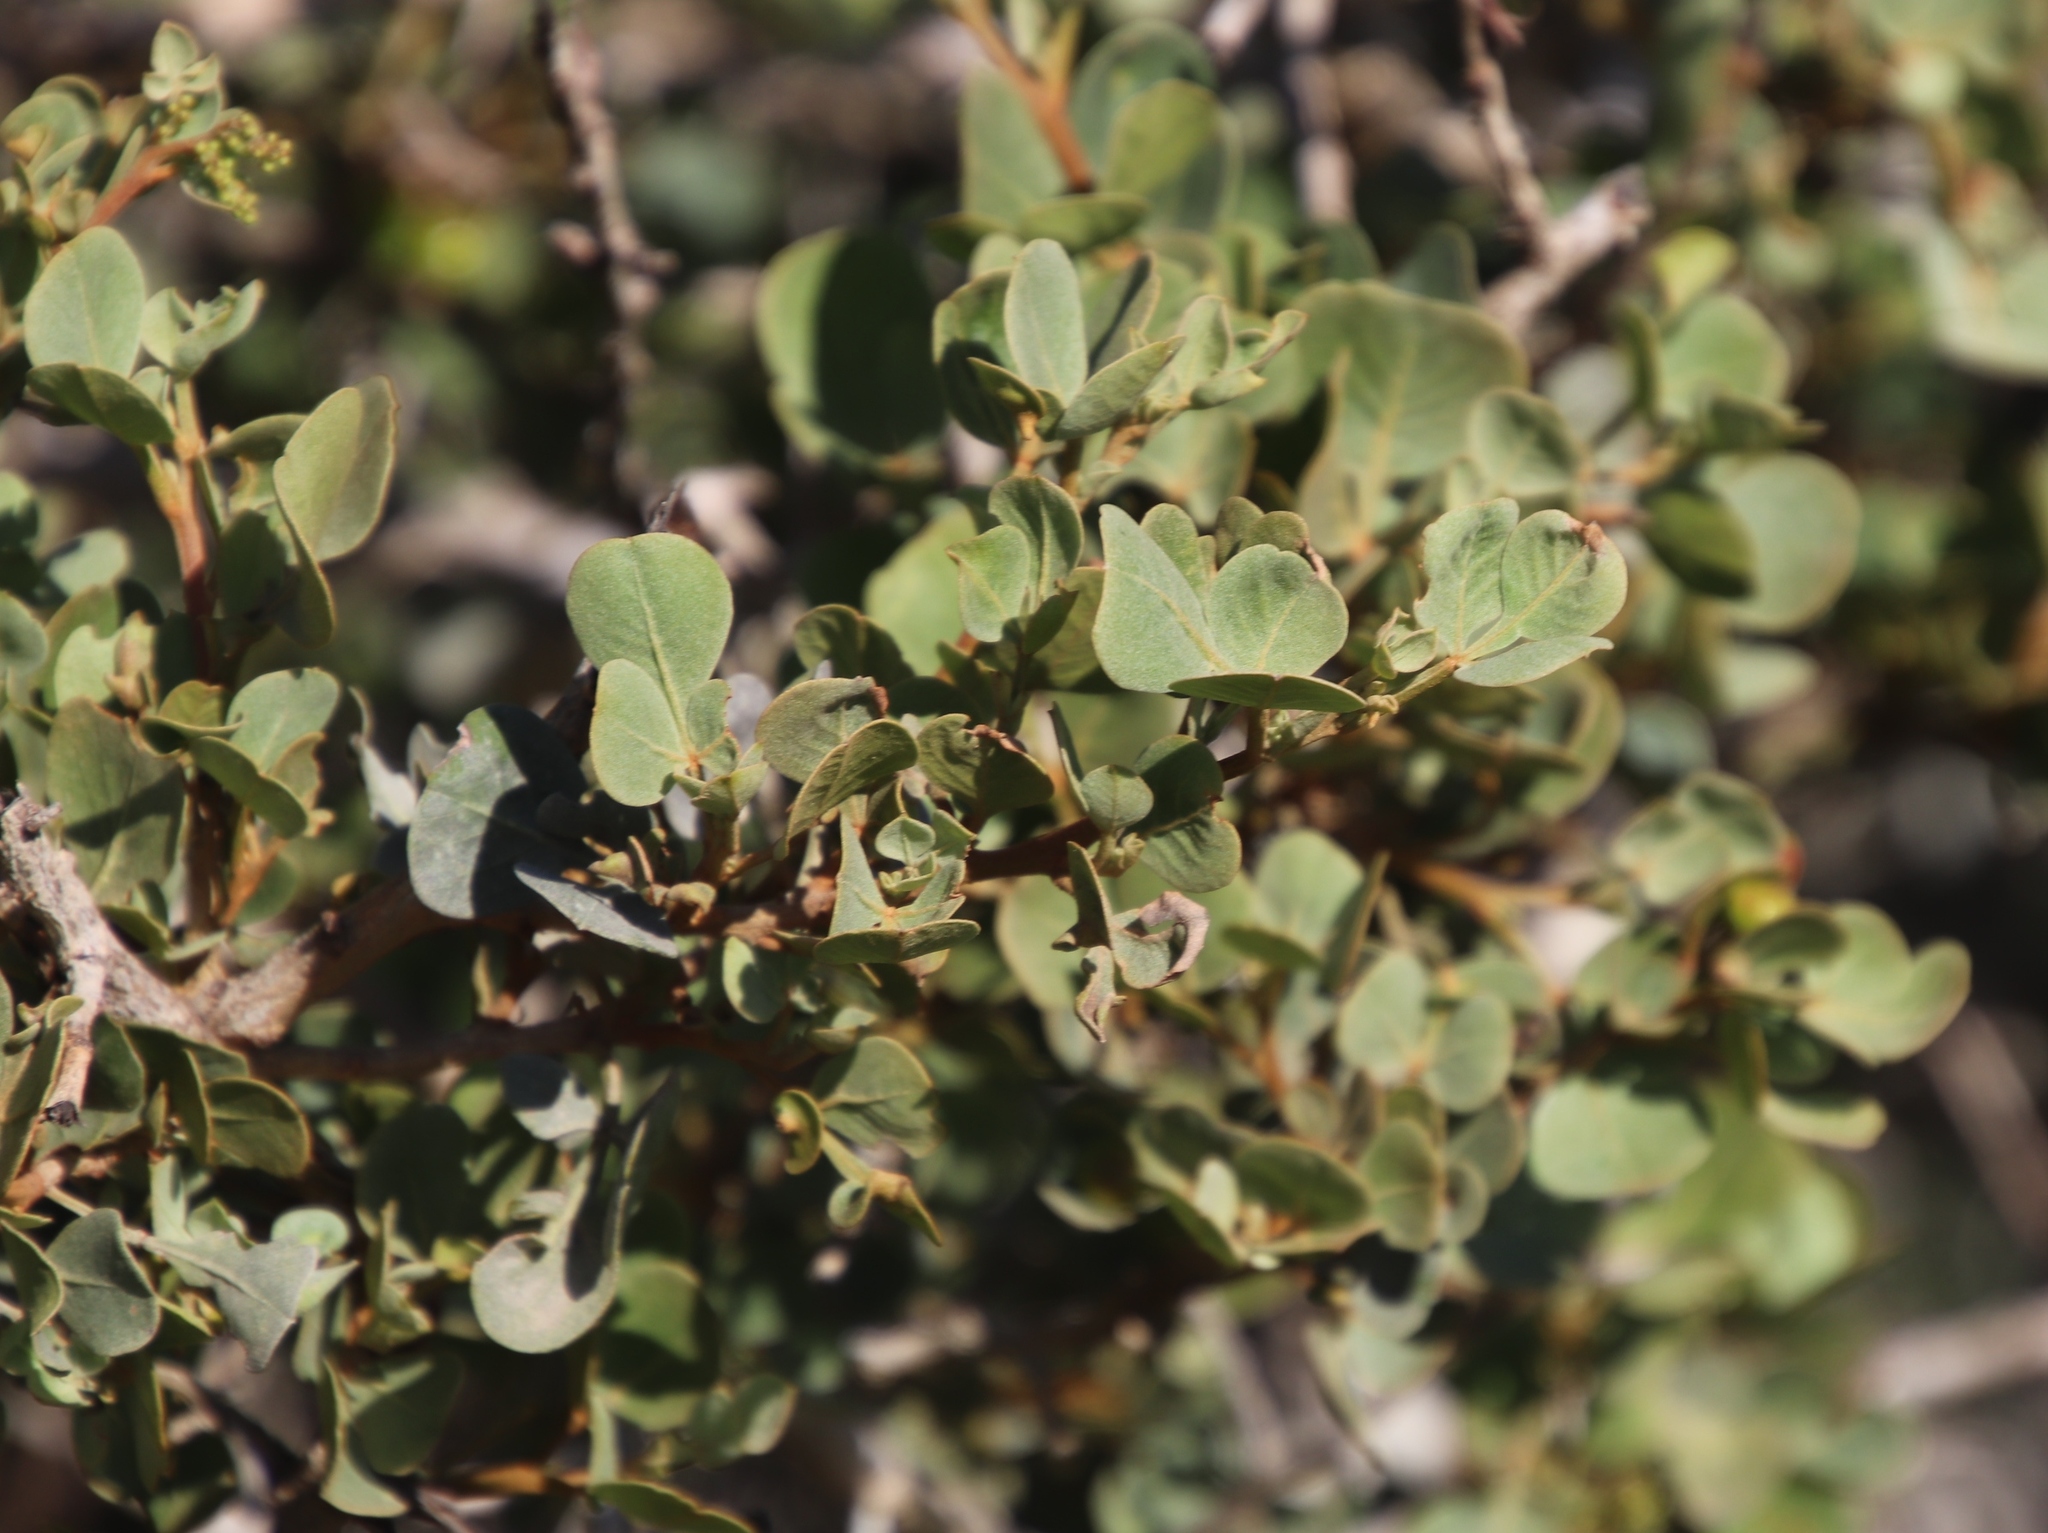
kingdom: Plantae
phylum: Tracheophyta
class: Magnoliopsida
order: Sapindales
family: Anacardiaceae
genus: Searsia
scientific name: Searsia glauca
